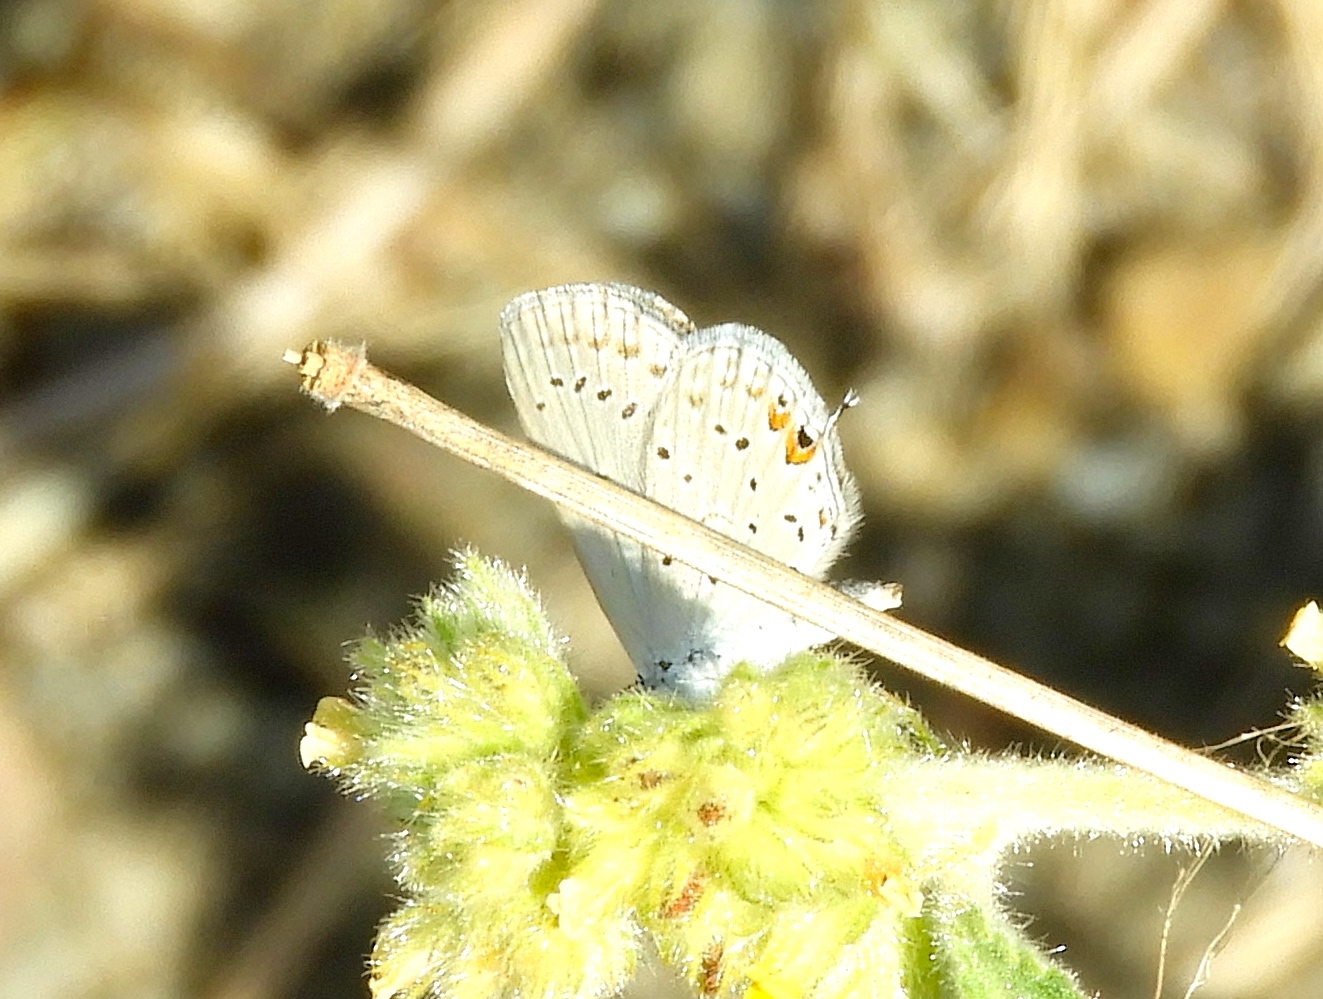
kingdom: Animalia
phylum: Arthropoda
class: Insecta
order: Lepidoptera
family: Lycaenidae
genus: Elkalyce
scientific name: Elkalyce comyntas
